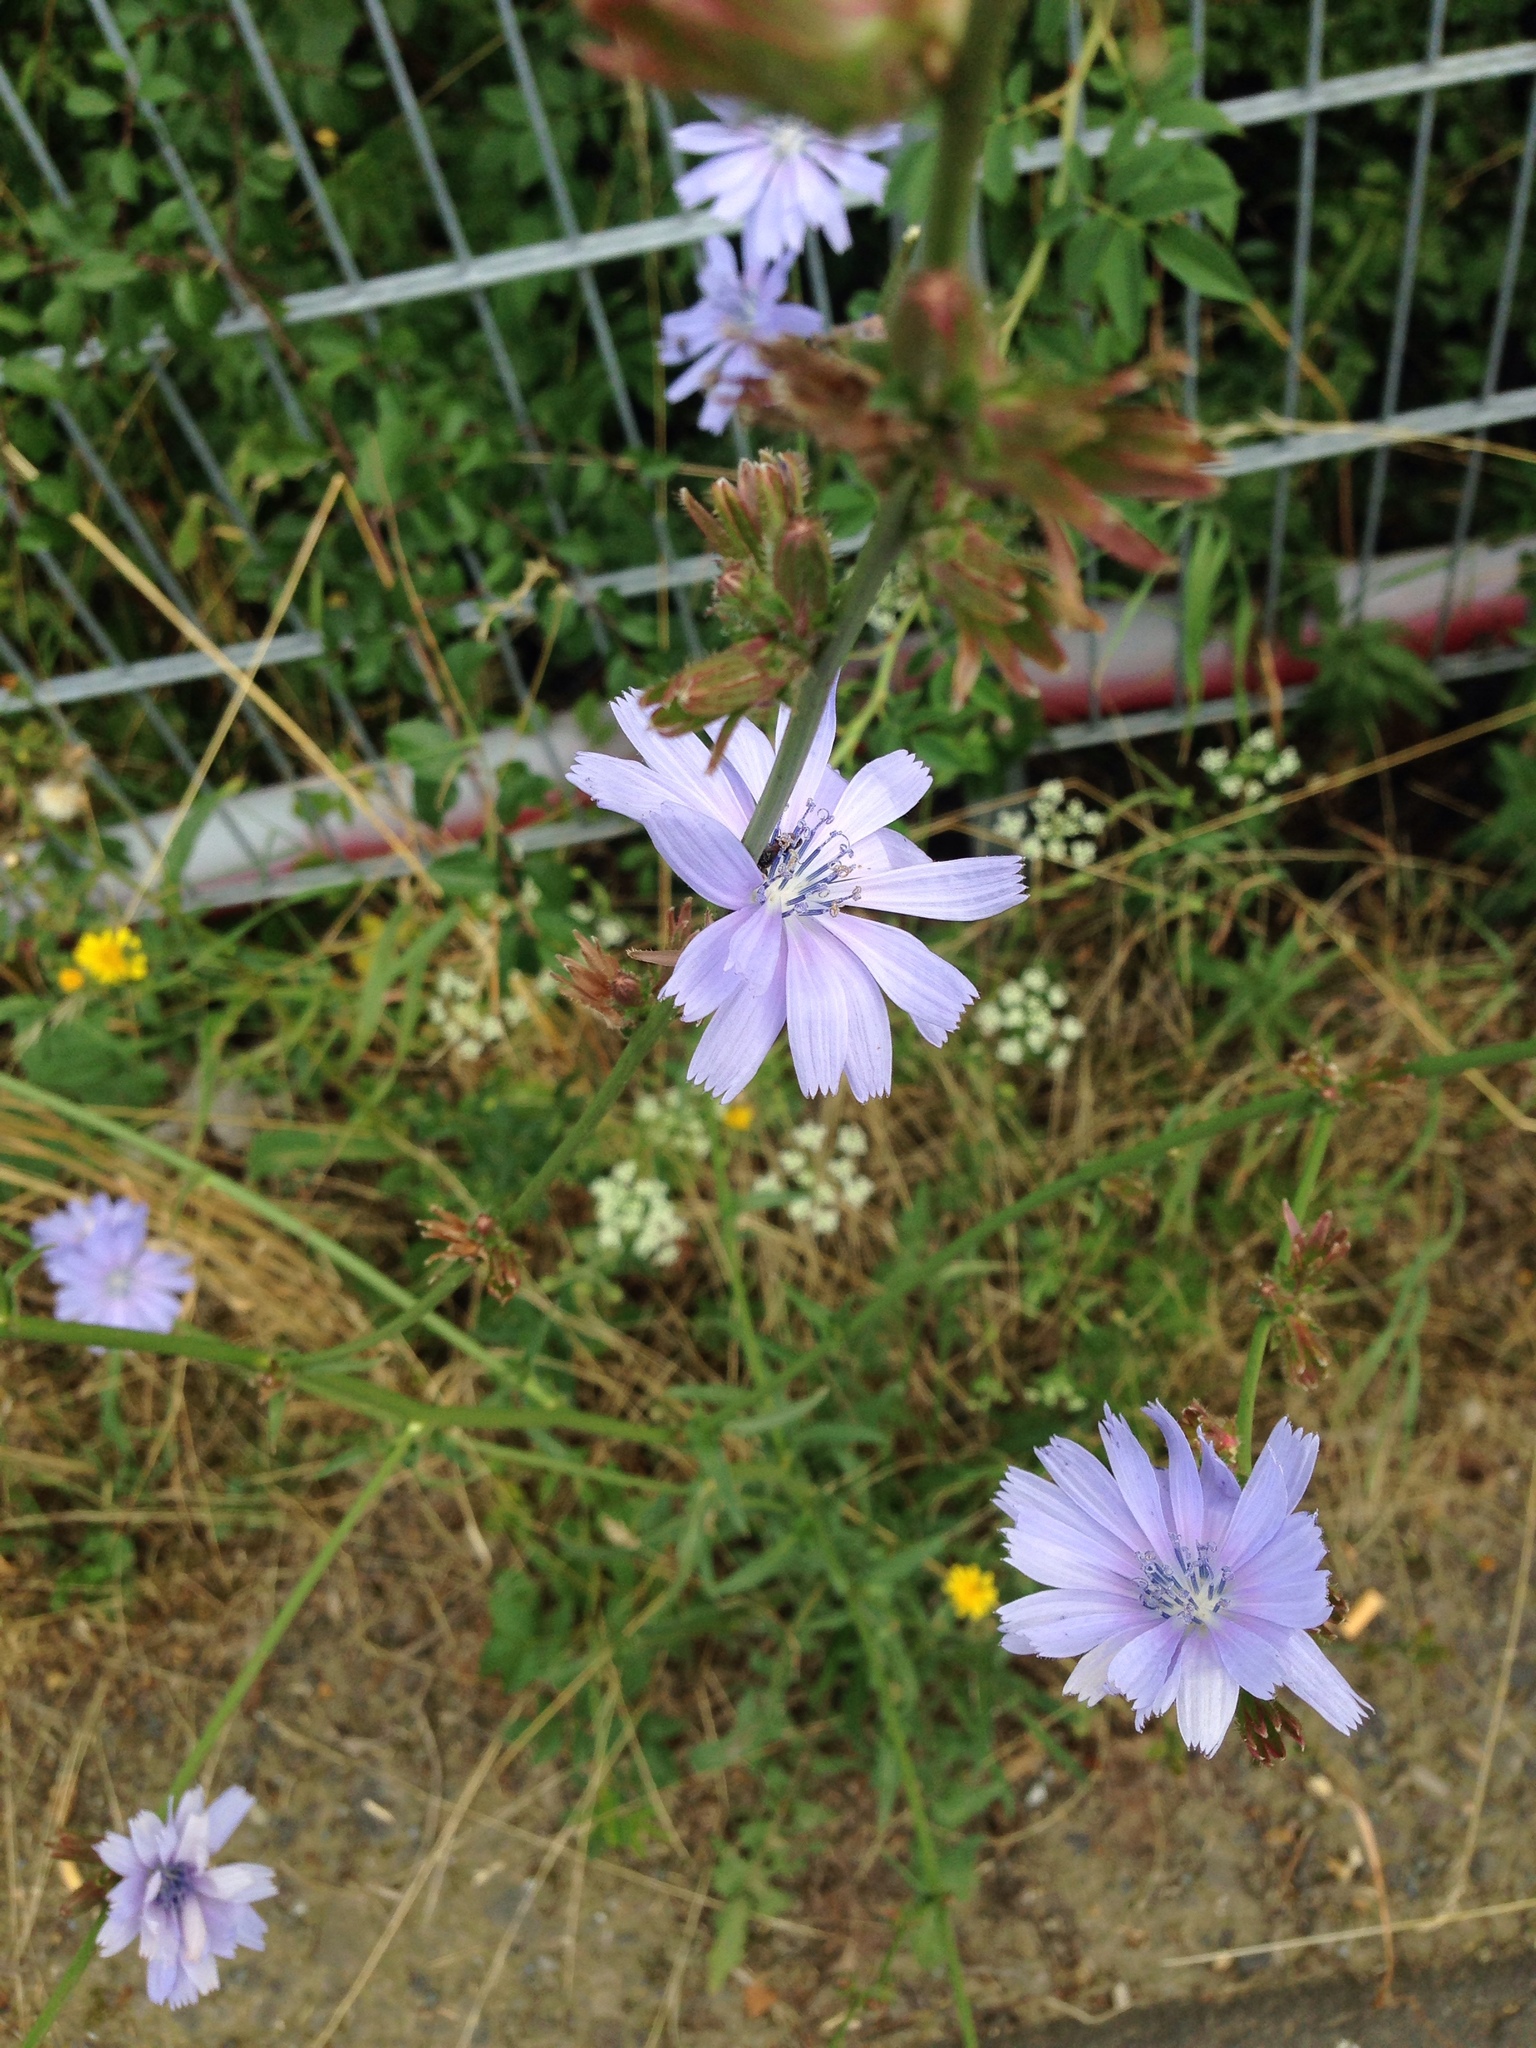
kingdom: Plantae
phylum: Tracheophyta
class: Magnoliopsida
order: Asterales
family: Asteraceae
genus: Cichorium
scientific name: Cichorium intybus
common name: Chicory
